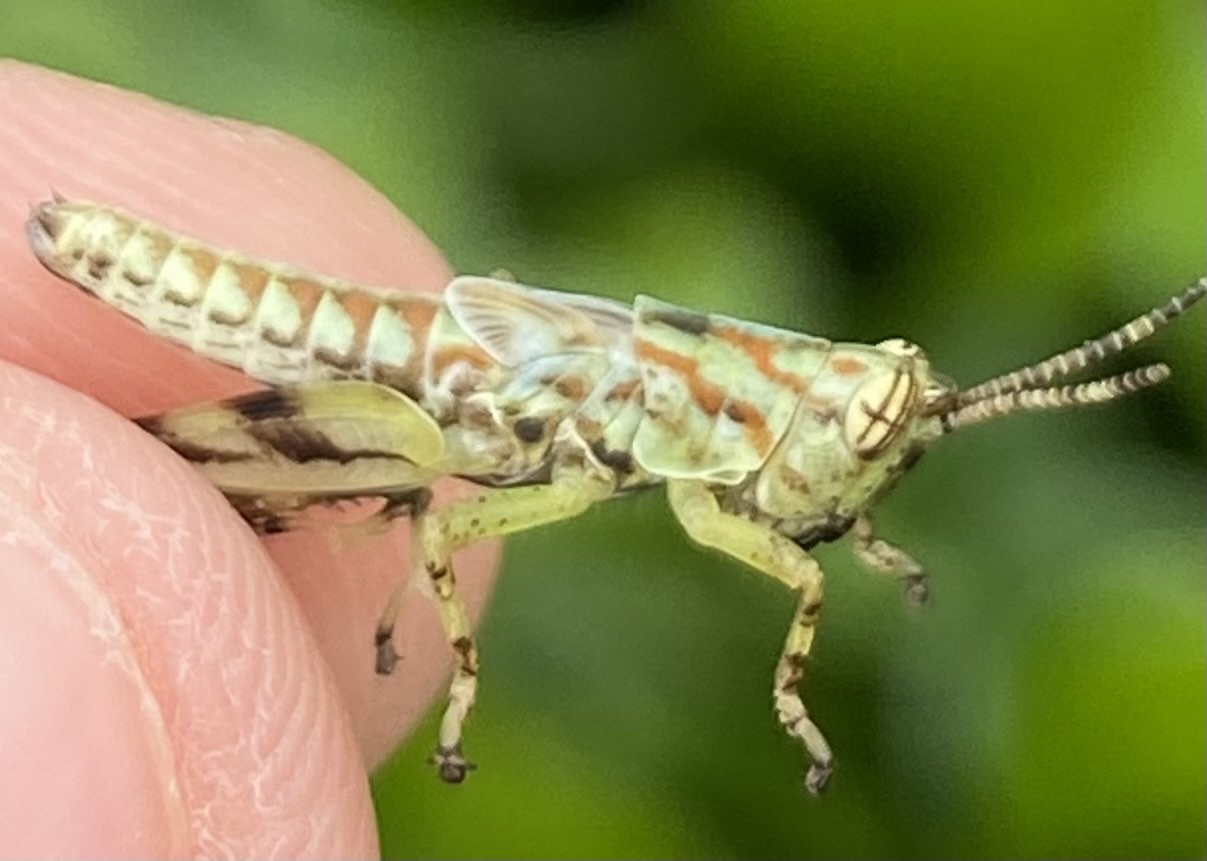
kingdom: Animalia
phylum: Arthropoda
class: Insecta
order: Orthoptera
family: Acrididae
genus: Cornops
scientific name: Cornops aquaticum
